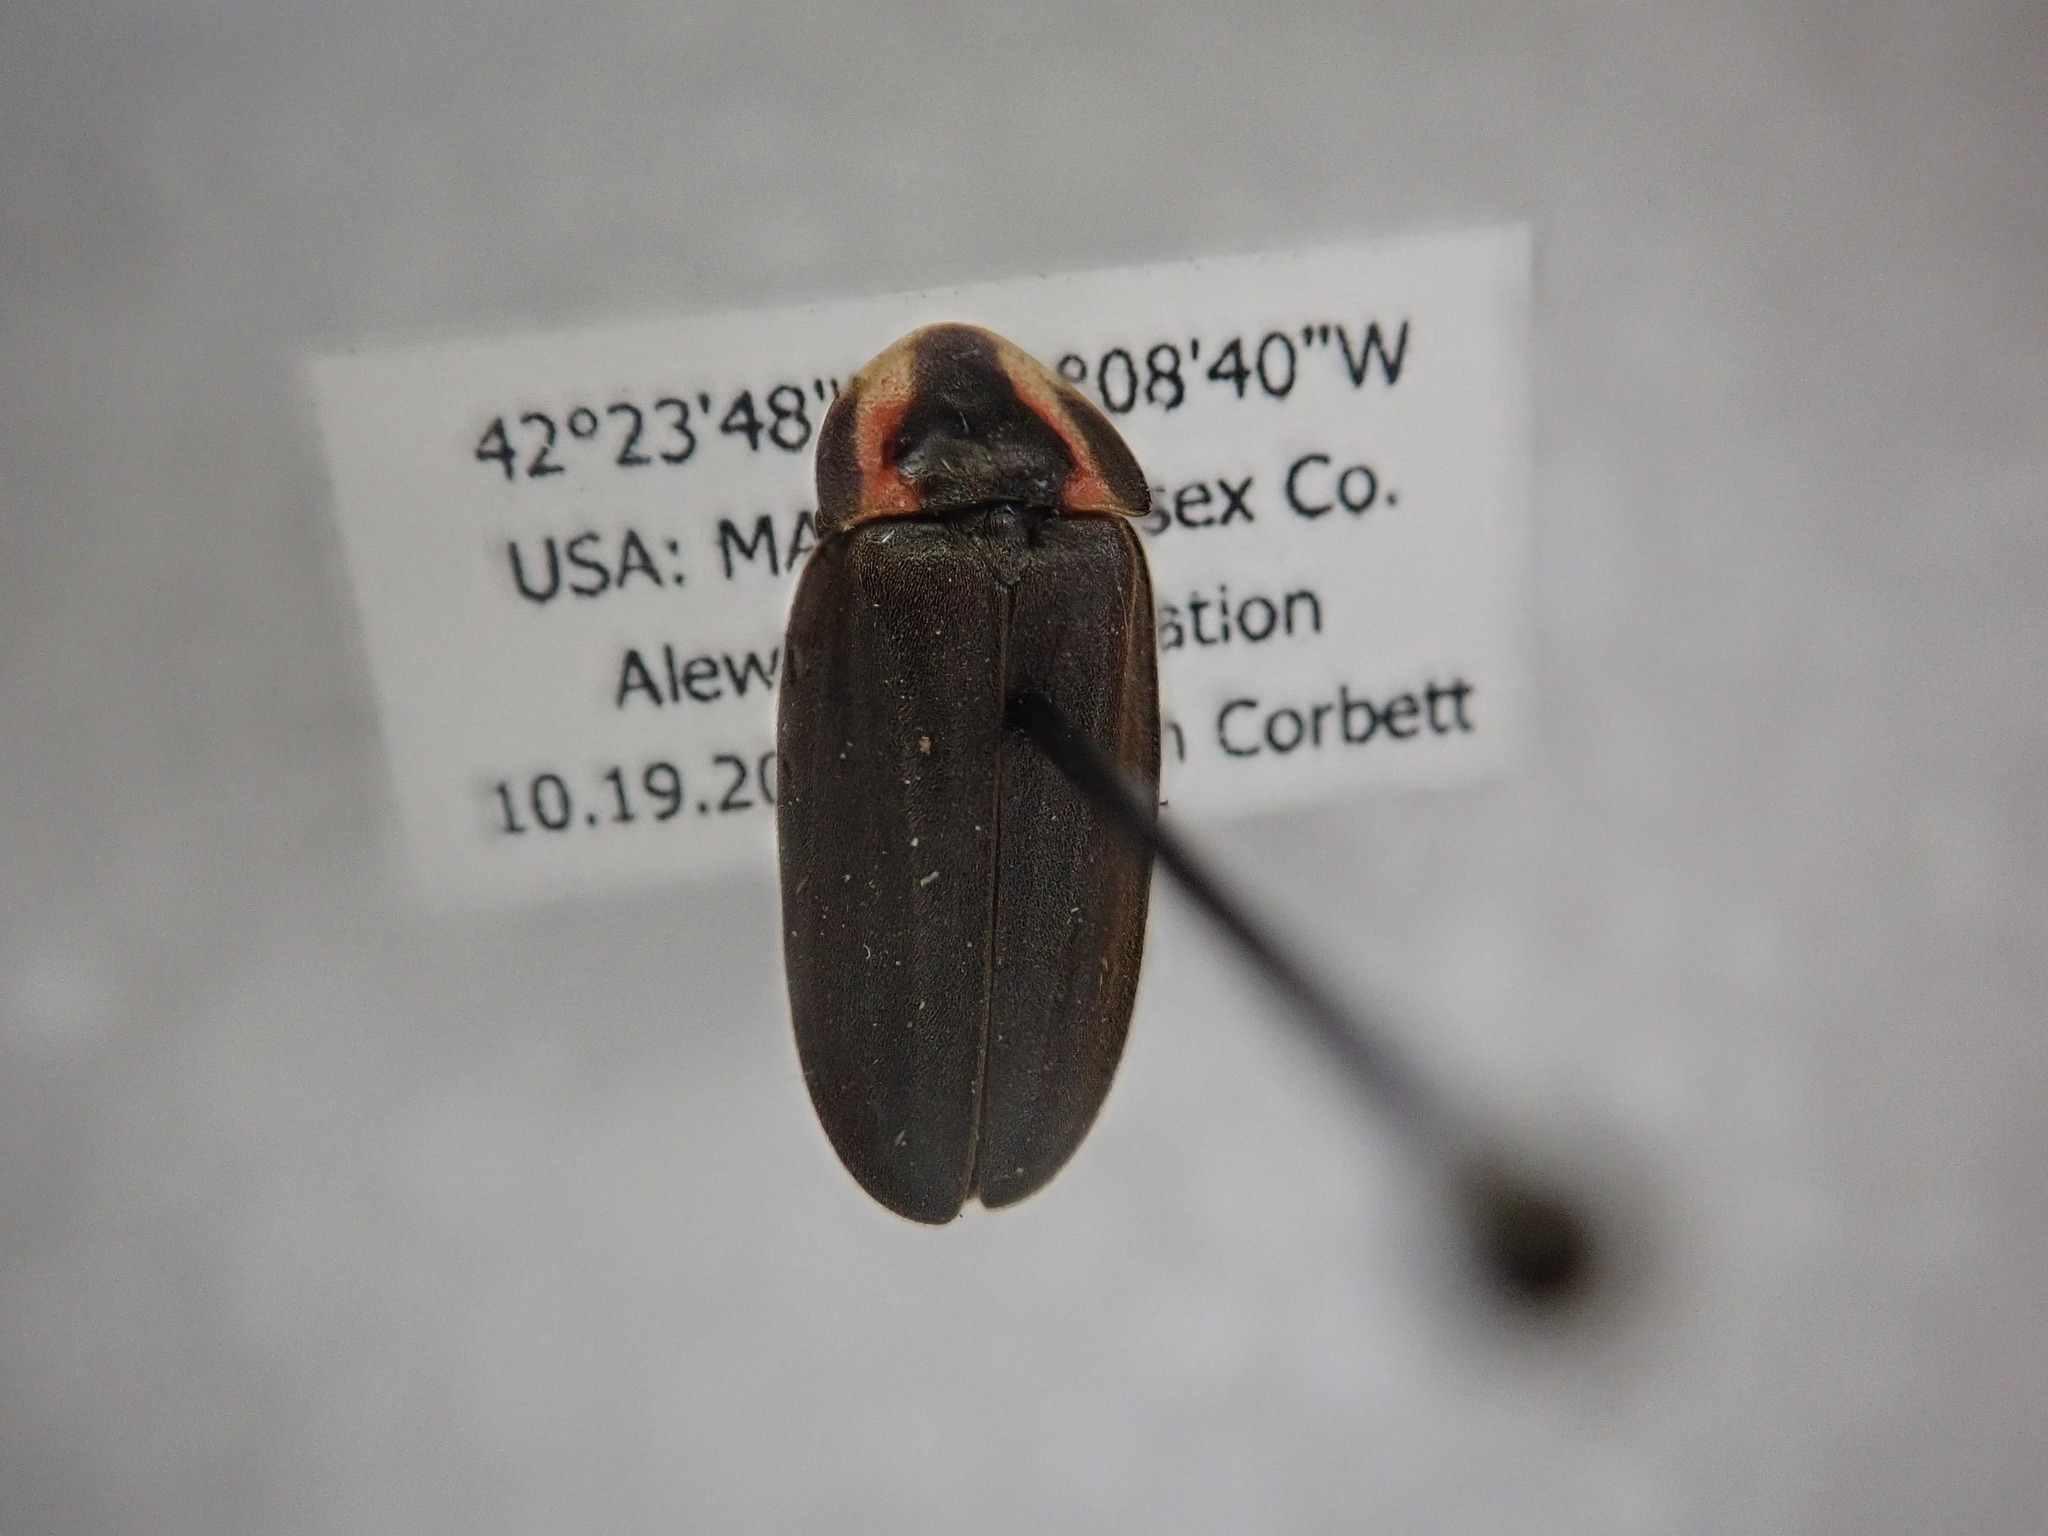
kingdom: Animalia
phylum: Arthropoda
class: Insecta
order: Coleoptera
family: Lampyridae
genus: Photinus
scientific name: Photinus corrusca
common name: Winter firefly
